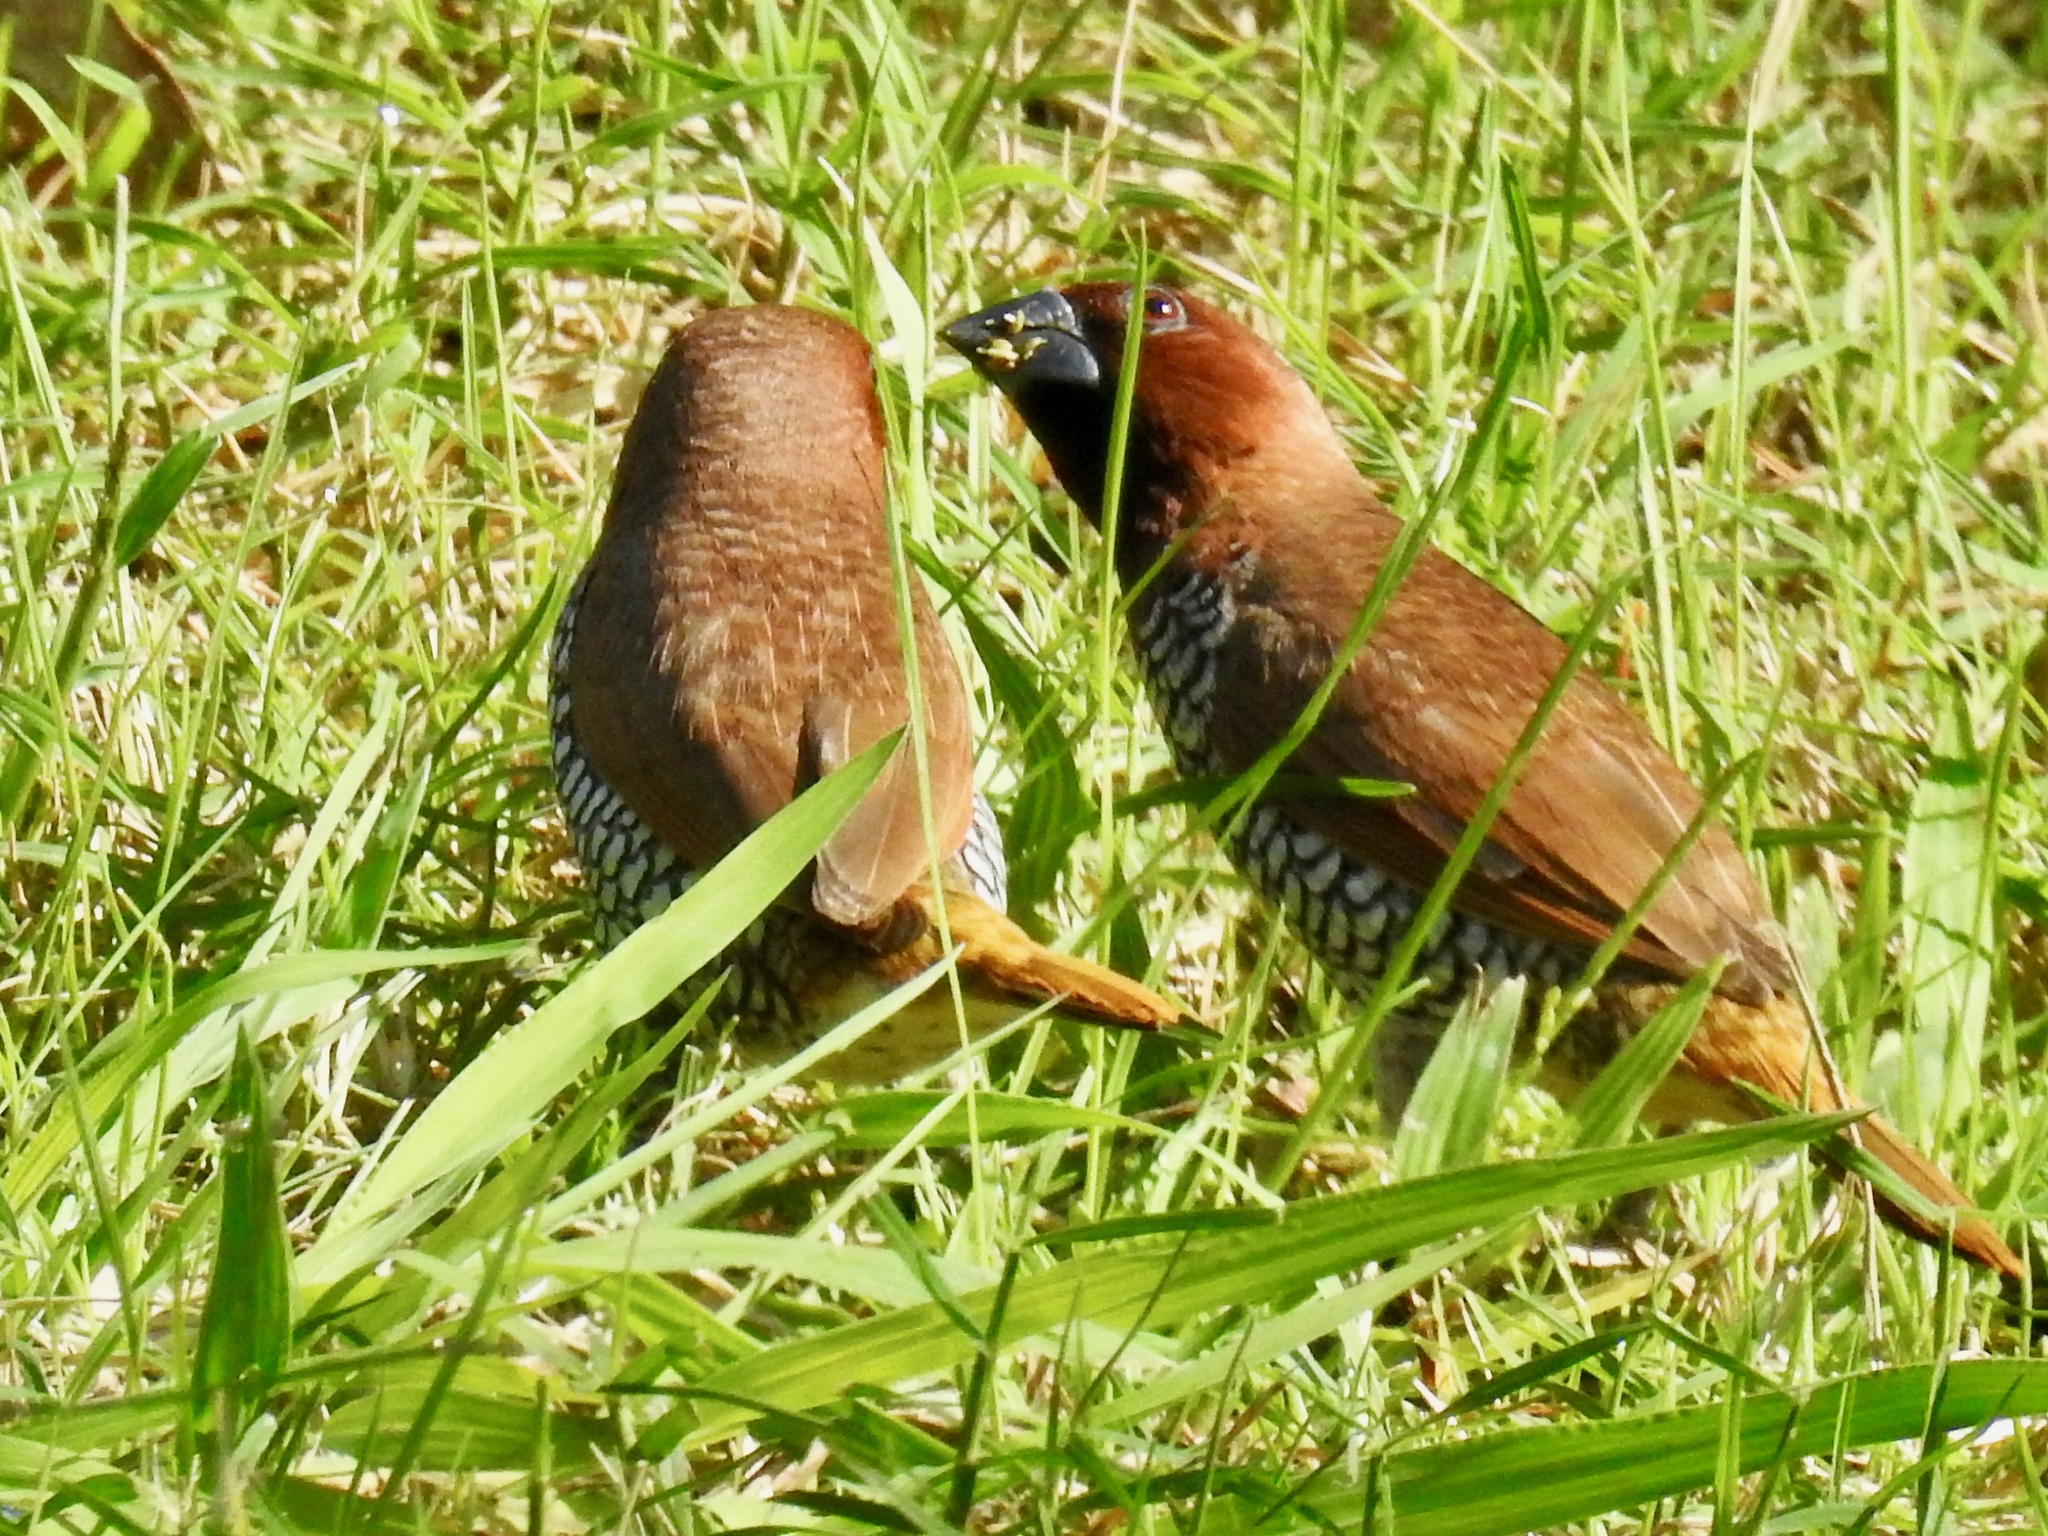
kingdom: Animalia
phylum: Chordata
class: Aves
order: Passeriformes
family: Estrildidae
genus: Lonchura
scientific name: Lonchura punctulata
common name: Scaly-breasted munia
